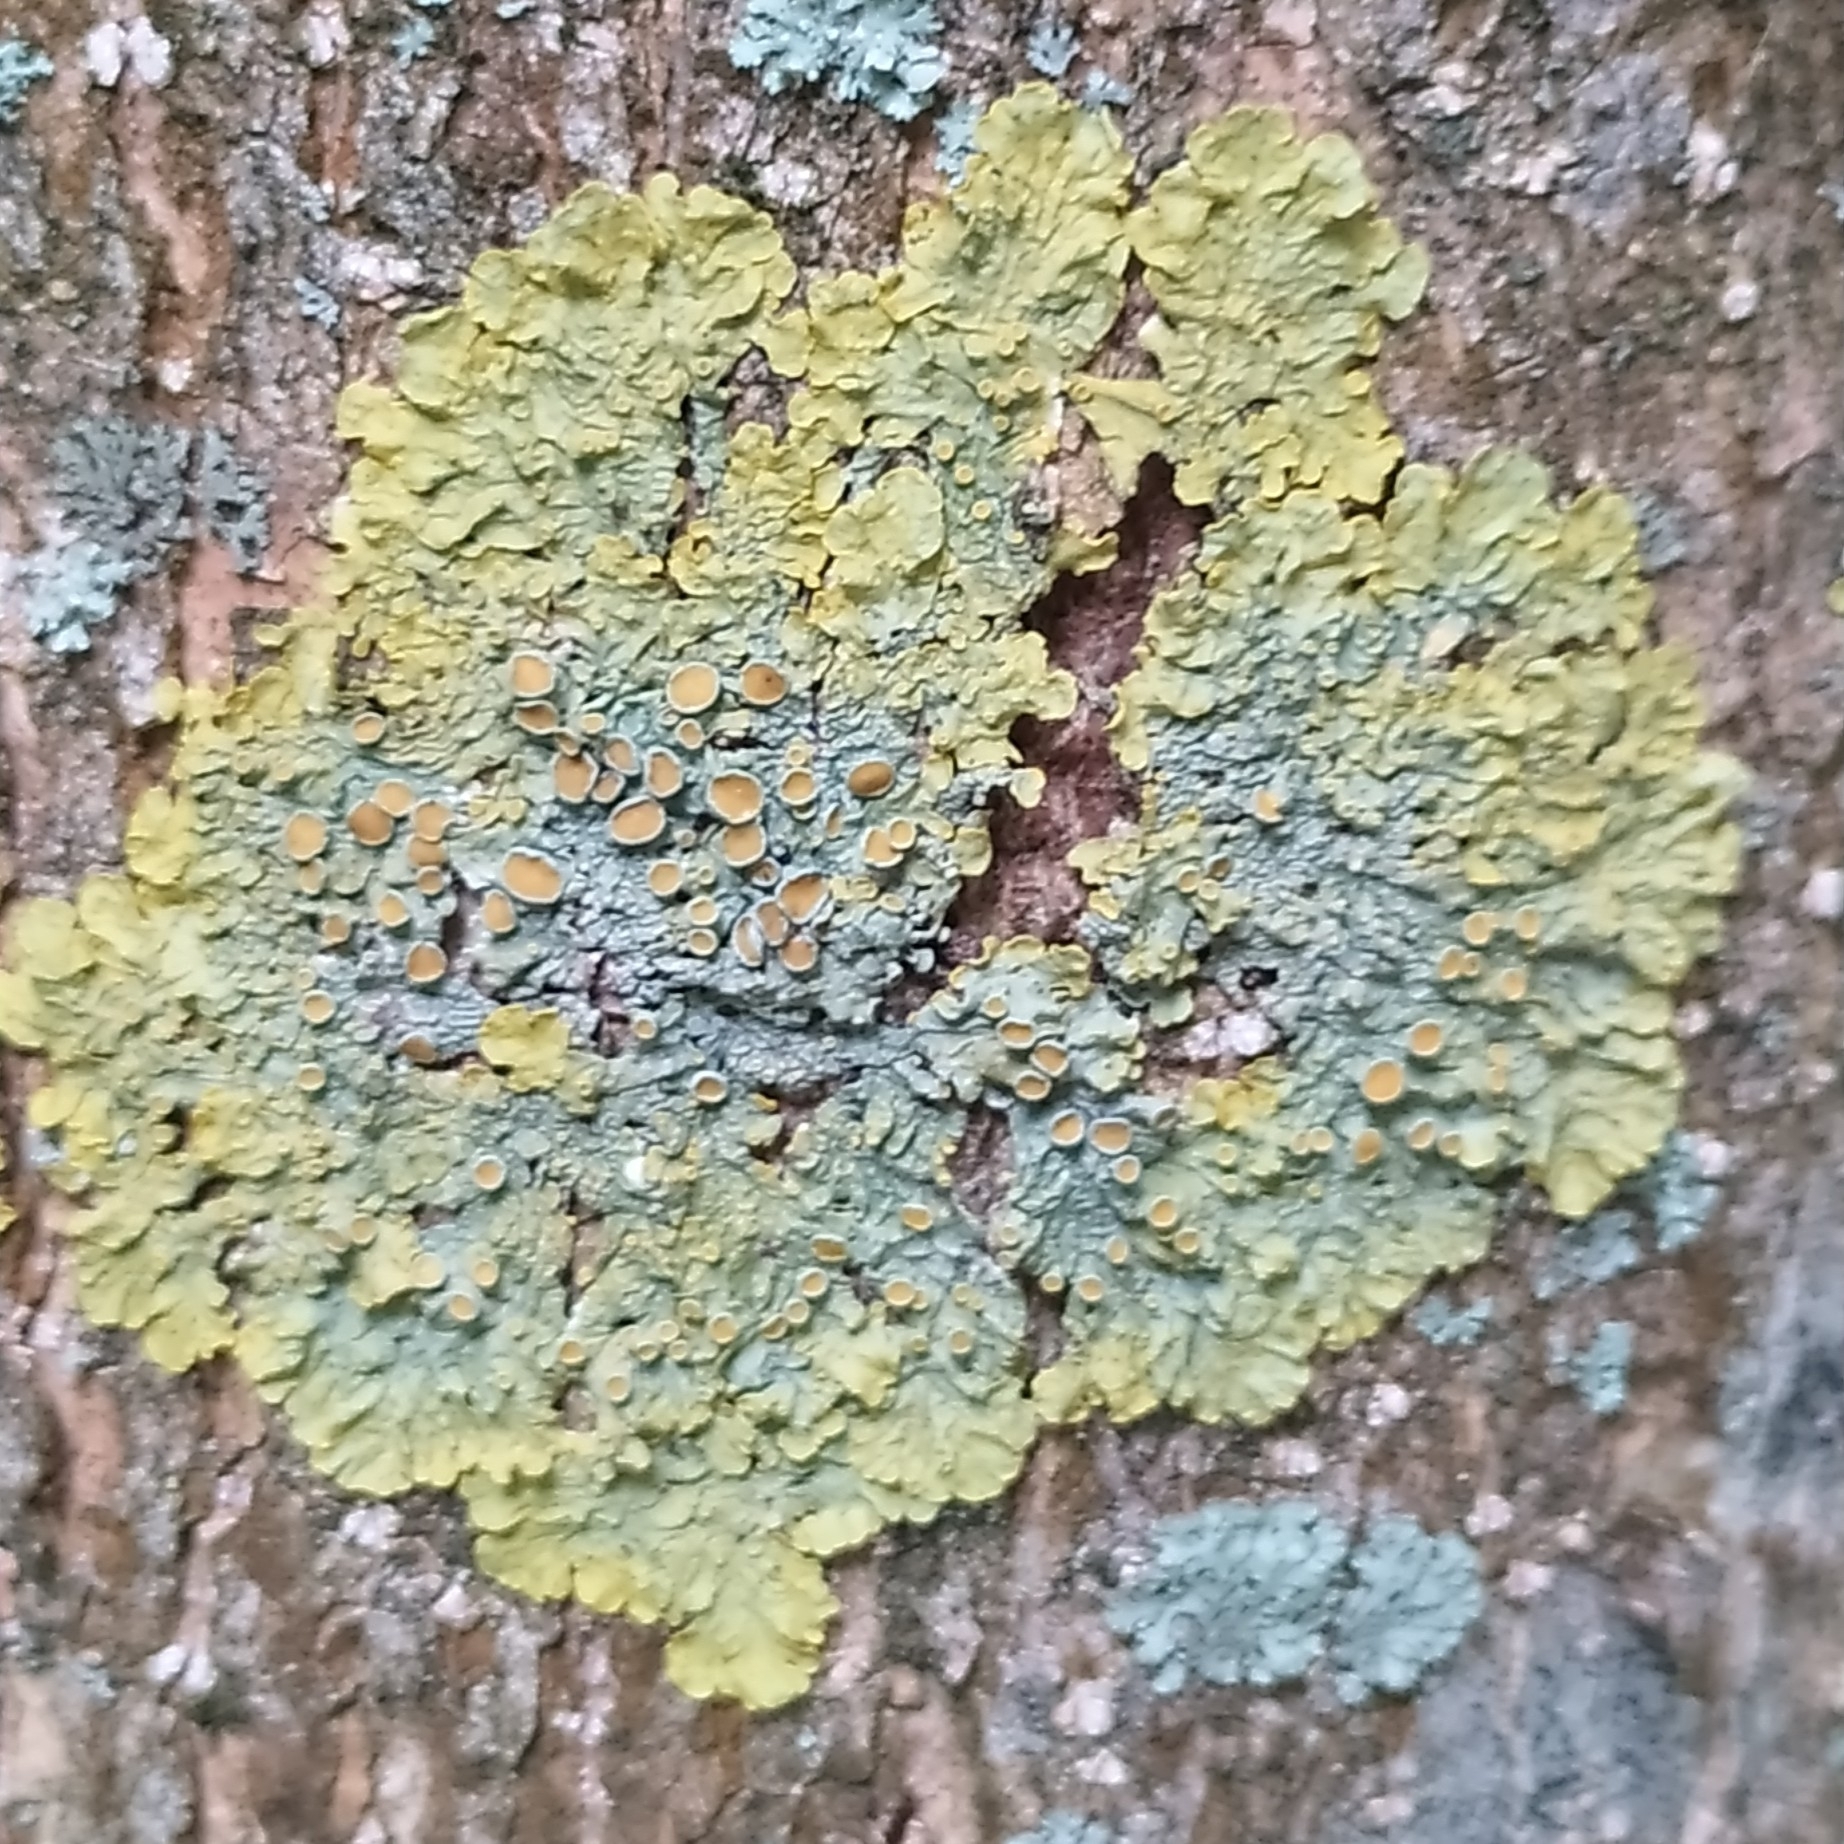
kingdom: Fungi
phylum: Ascomycota
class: Lecanoromycetes
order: Teloschistales
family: Teloschistaceae
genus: Xanthoria
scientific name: Xanthoria parietina
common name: Common orange lichen
